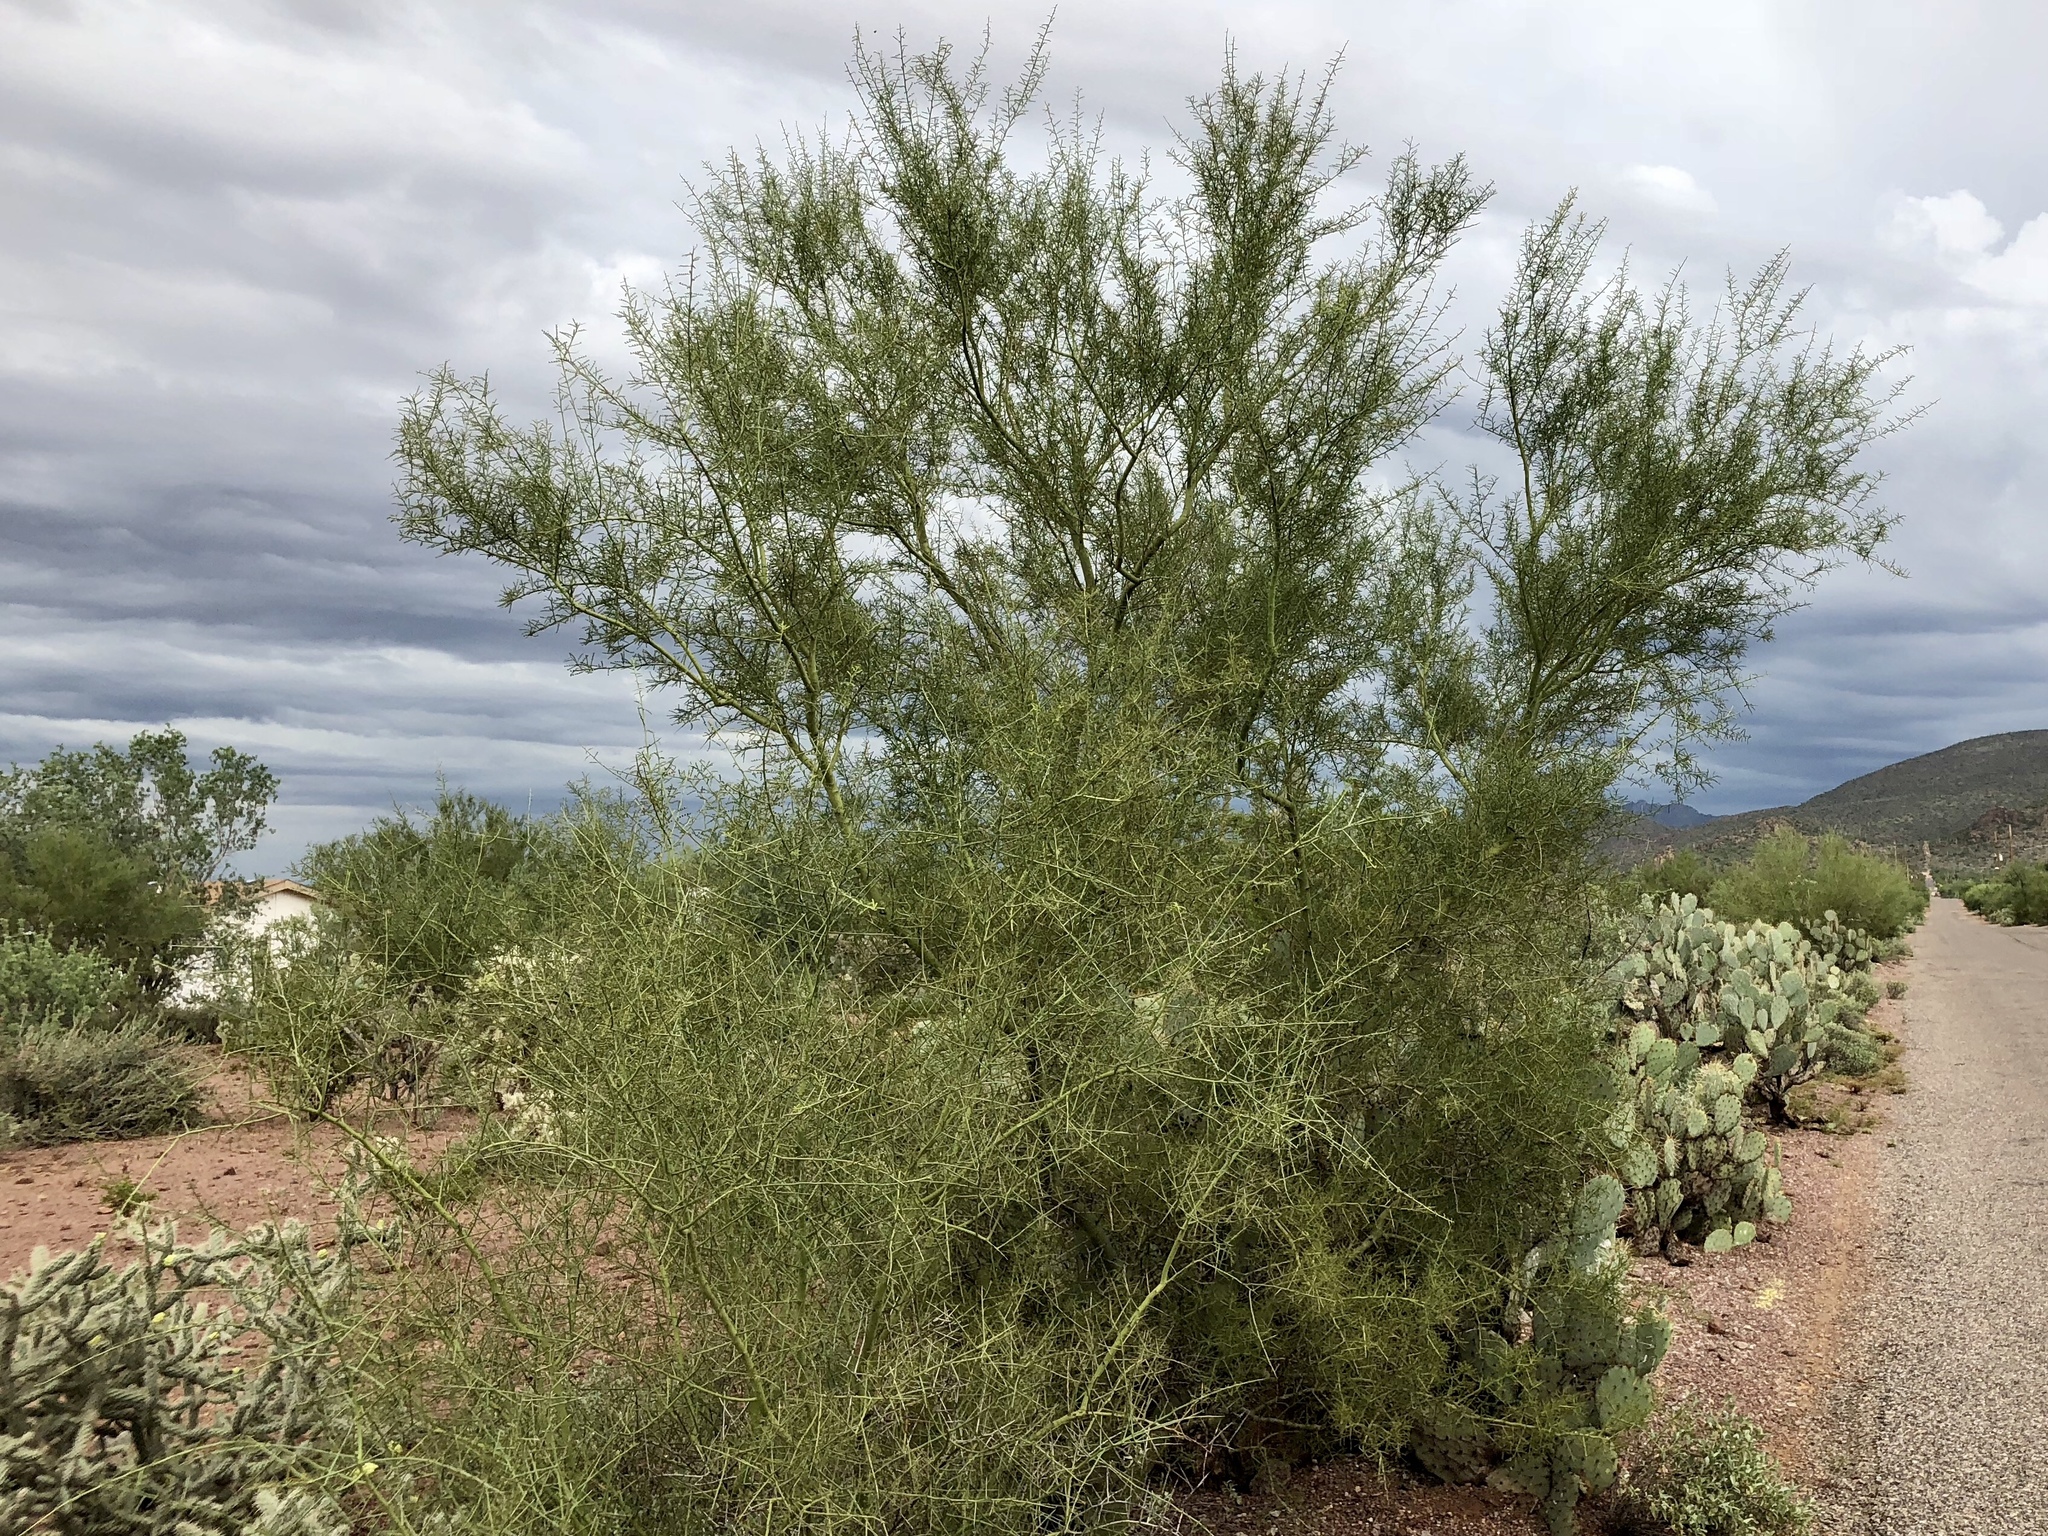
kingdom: Plantae
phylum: Tracheophyta
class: Magnoliopsida
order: Fabales
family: Fabaceae
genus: Parkinsonia
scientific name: Parkinsonia microphylla
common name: Yellow paloverde
